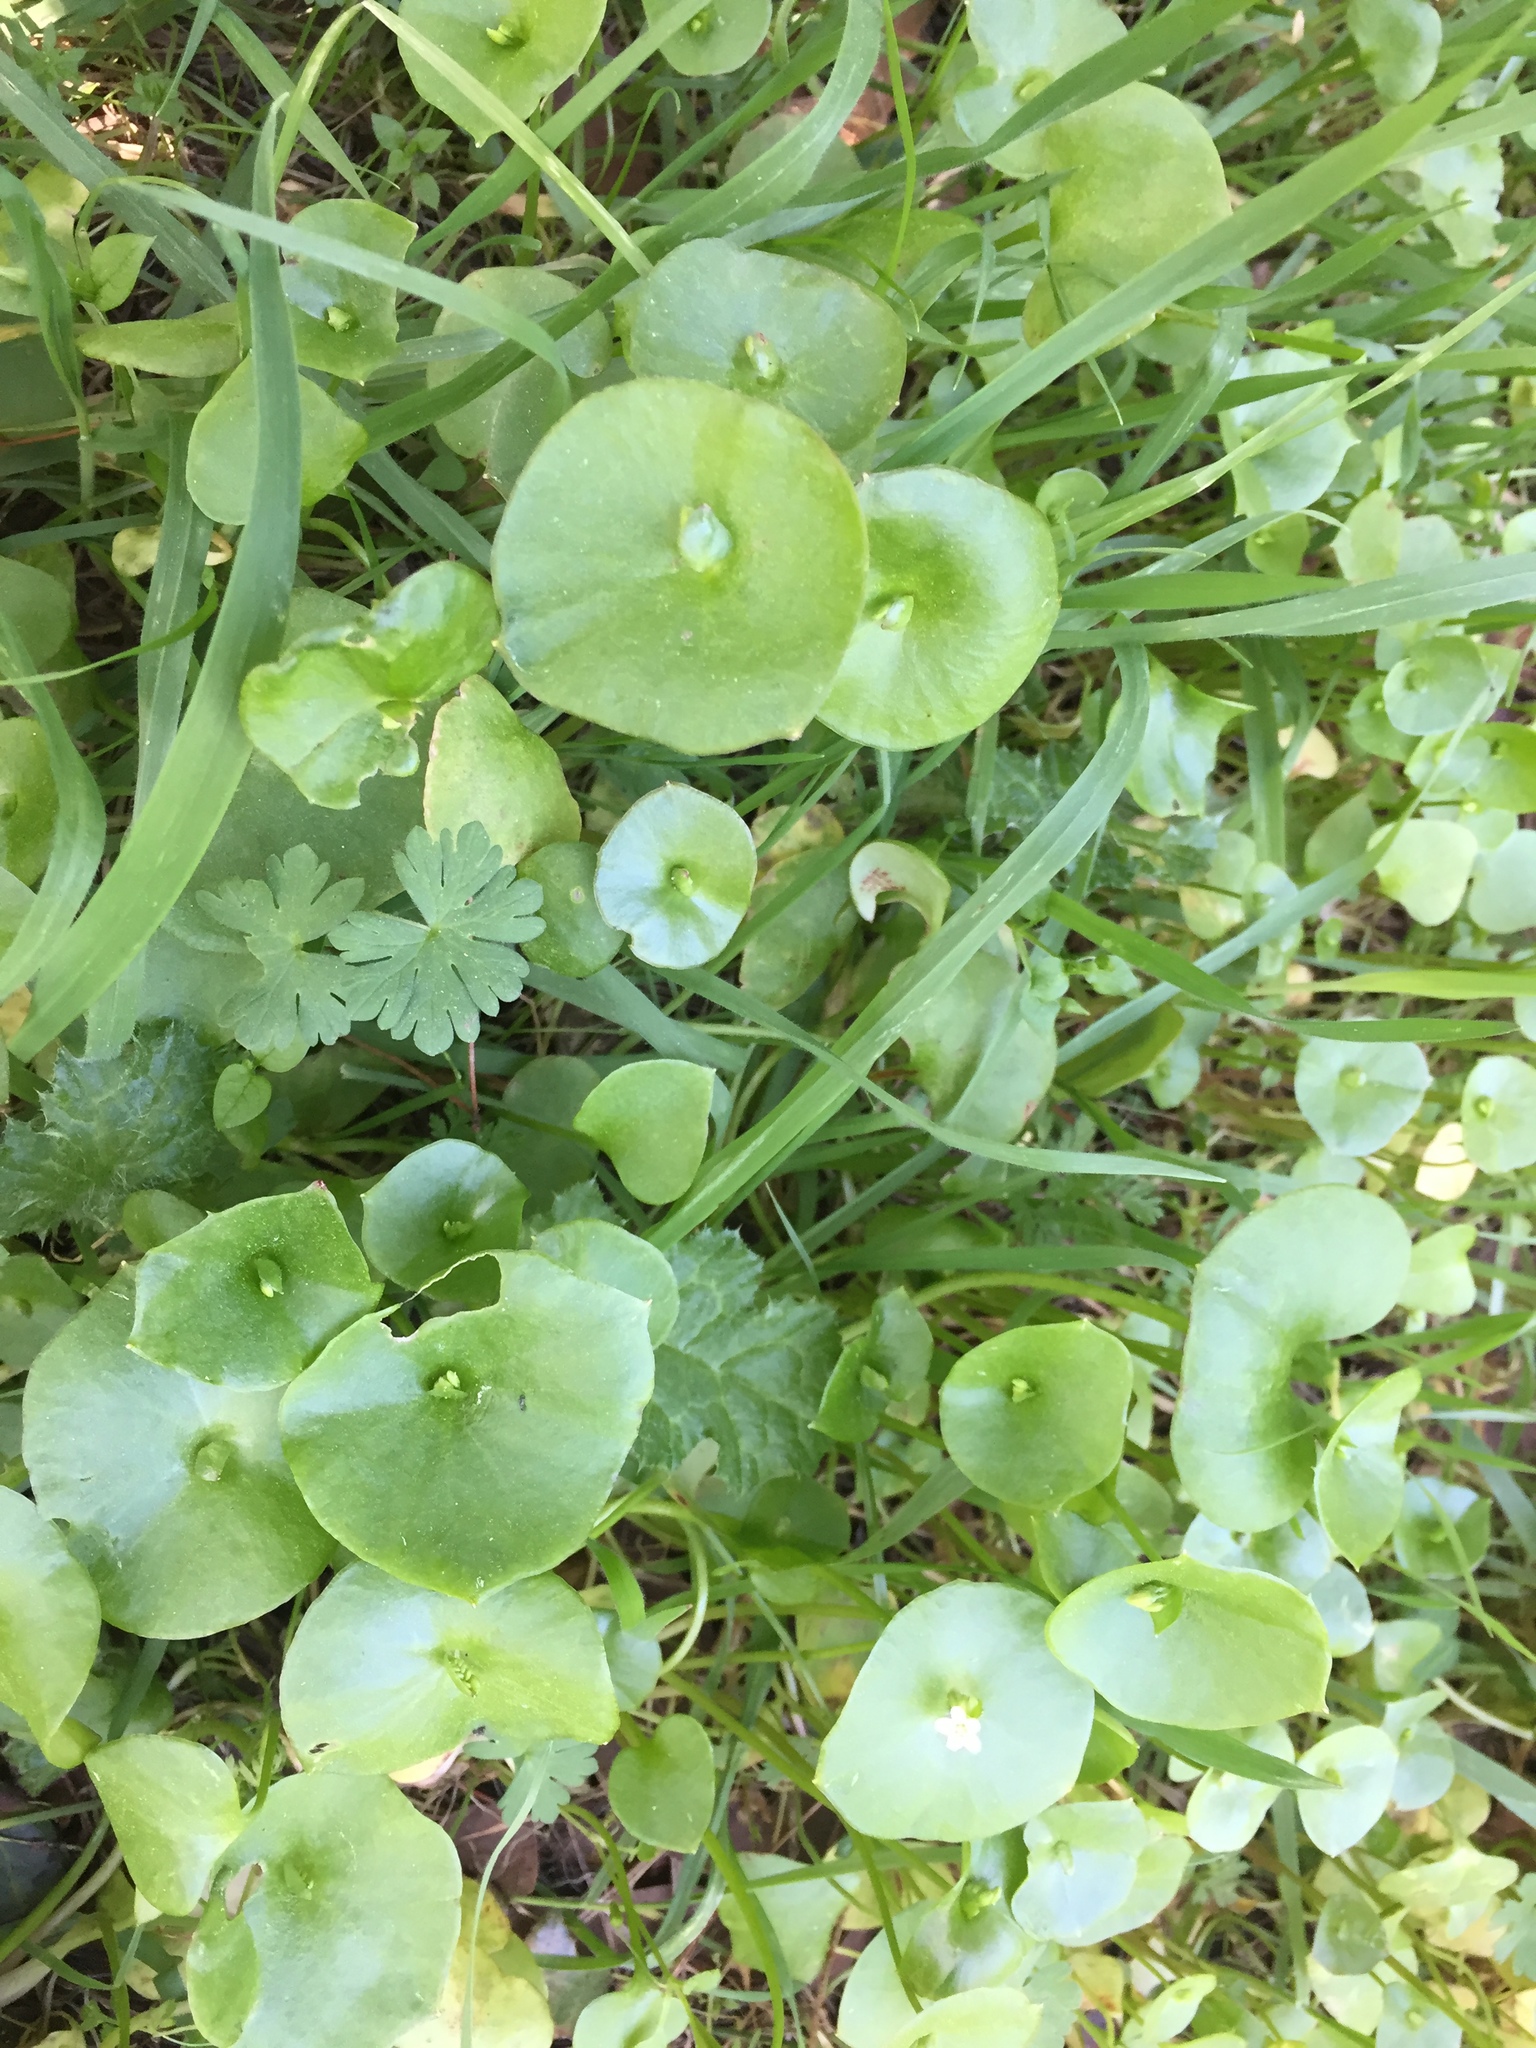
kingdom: Plantae
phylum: Tracheophyta
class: Magnoliopsida
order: Caryophyllales
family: Montiaceae
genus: Claytonia
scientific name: Claytonia perfoliata
